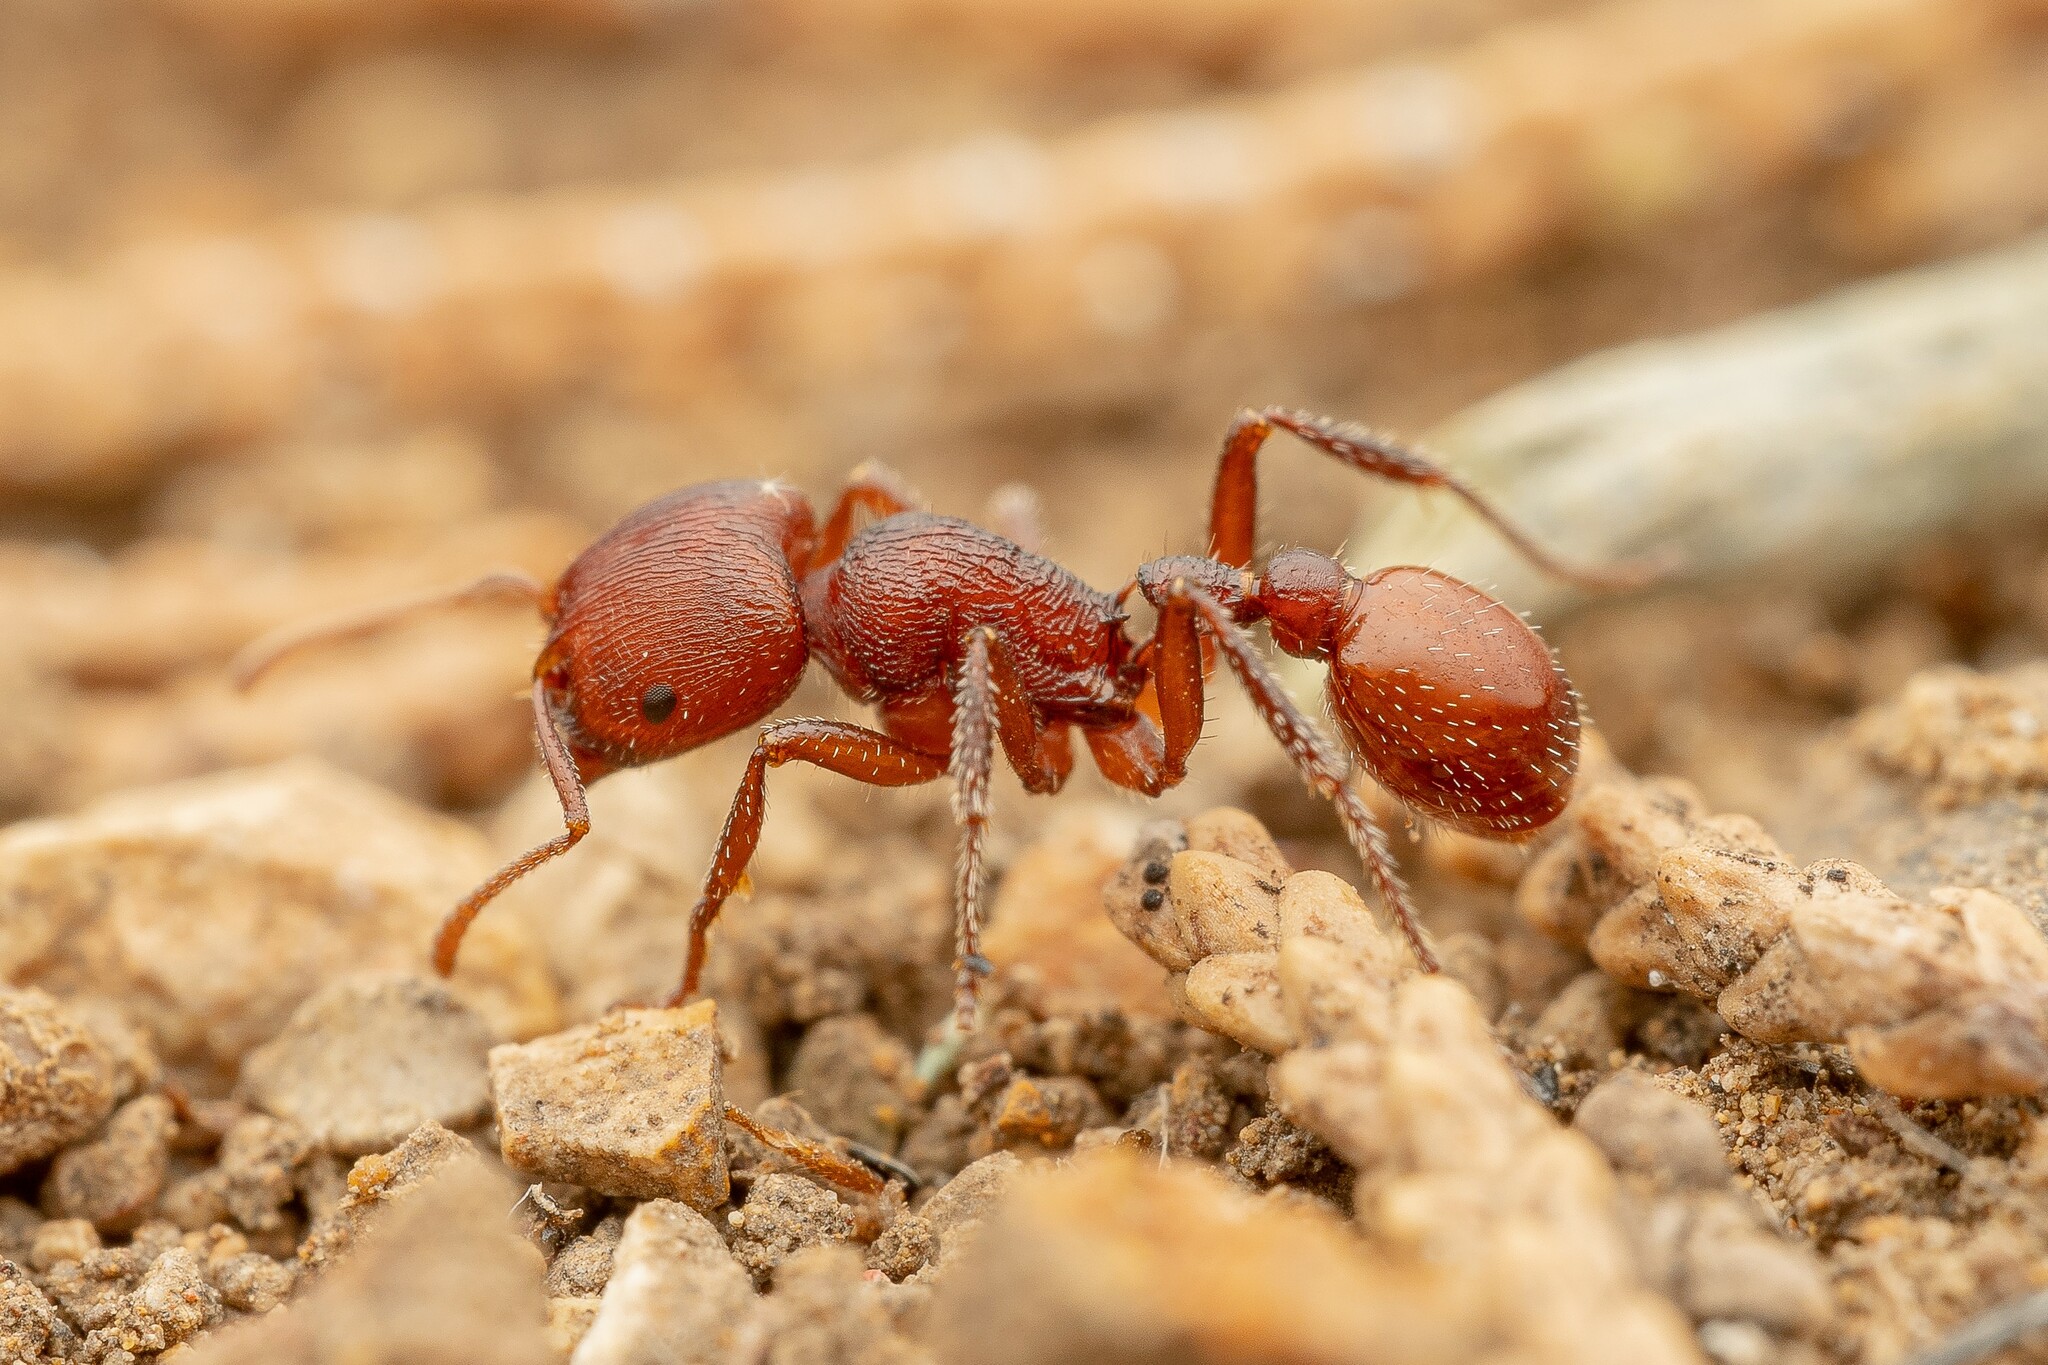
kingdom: Animalia
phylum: Arthropoda
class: Insecta
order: Hymenoptera
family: Formicidae
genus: Pogonomyrmex
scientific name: Pogonomyrmex huachucanus
